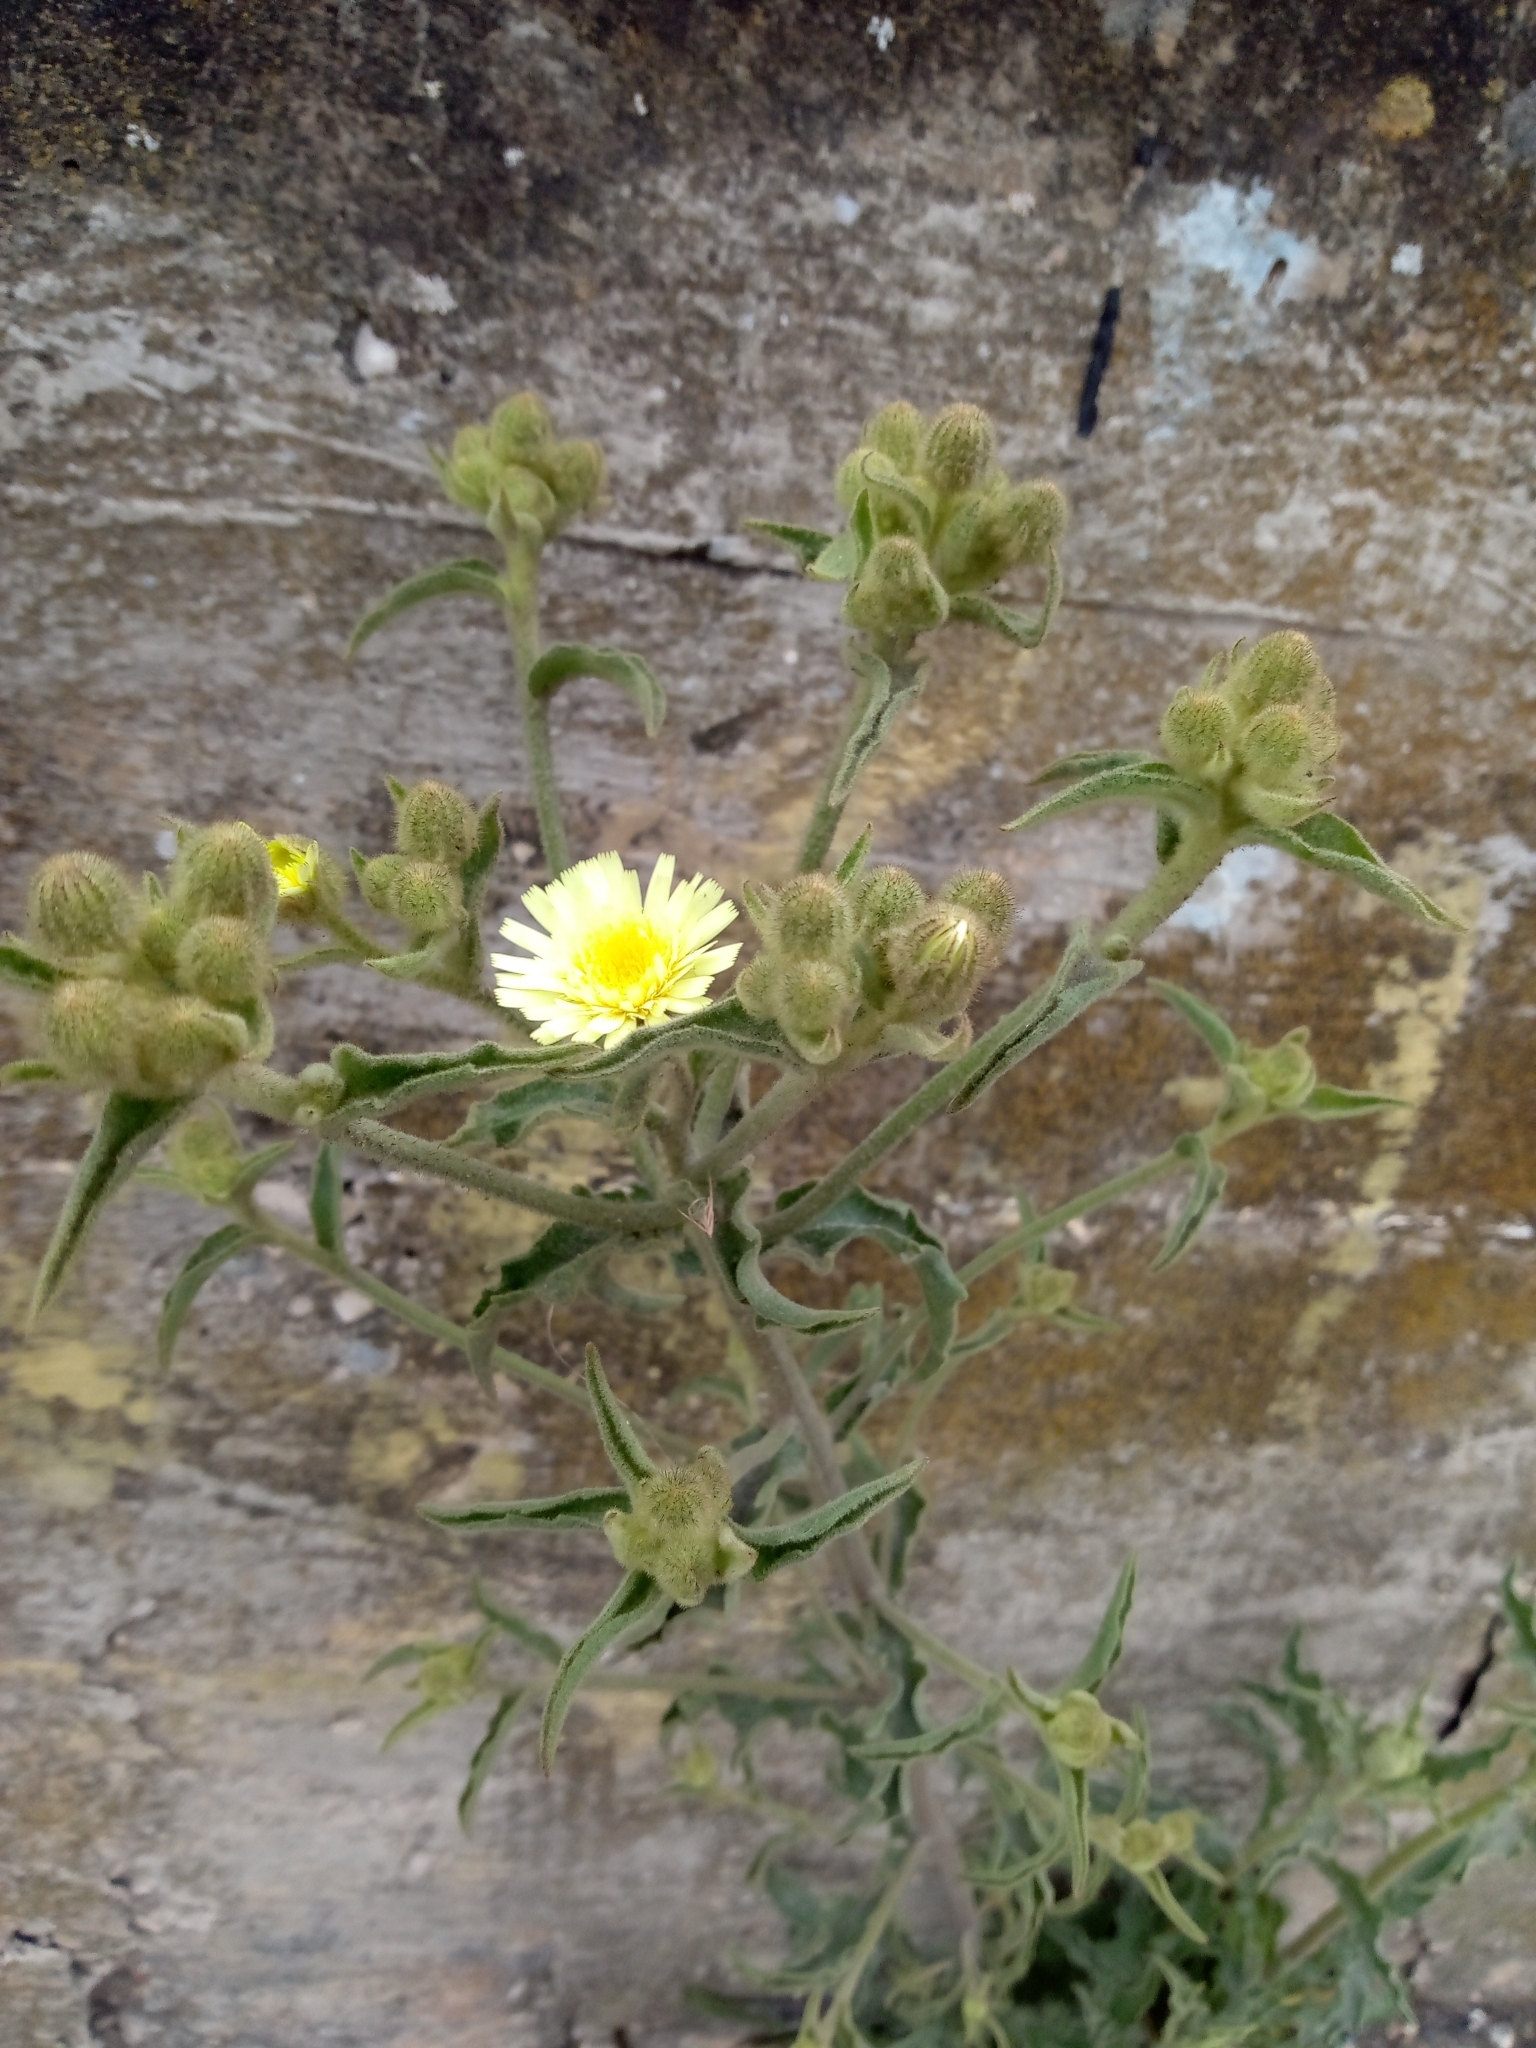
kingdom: Plantae
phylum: Tracheophyta
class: Magnoliopsida
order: Asterales
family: Asteraceae
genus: Andryala
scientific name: Andryala integrifolia
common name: Common andryala
